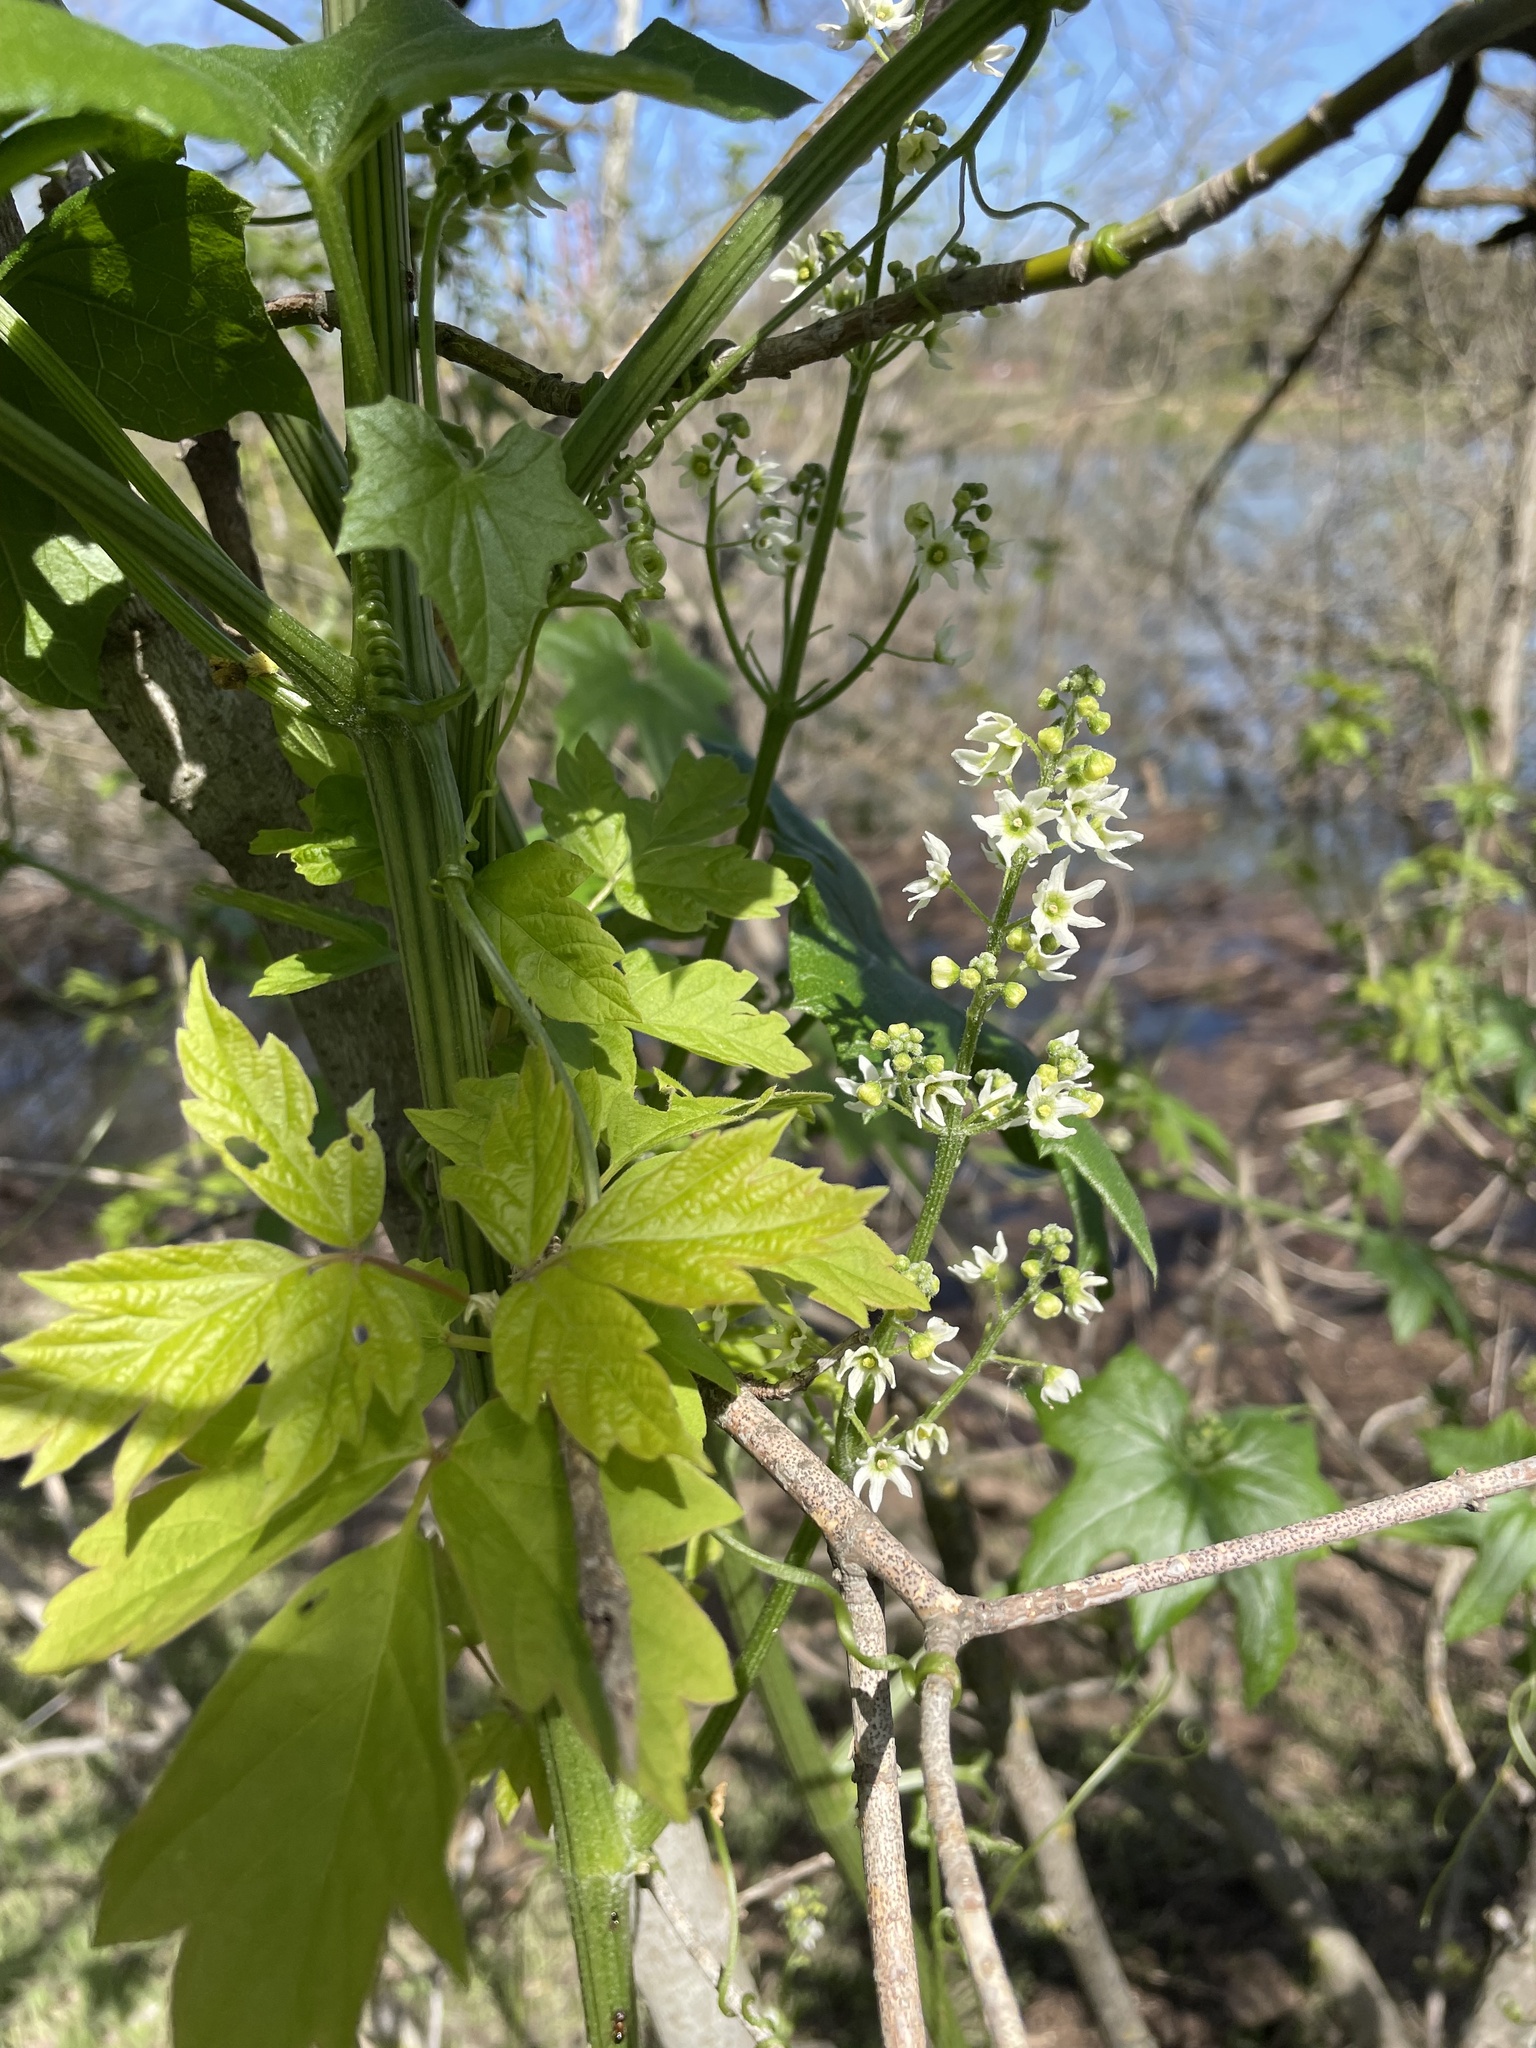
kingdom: Plantae
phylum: Tracheophyta
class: Magnoliopsida
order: Cucurbitales
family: Cucurbitaceae
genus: Marah
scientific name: Marah fabacea
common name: California manroot
